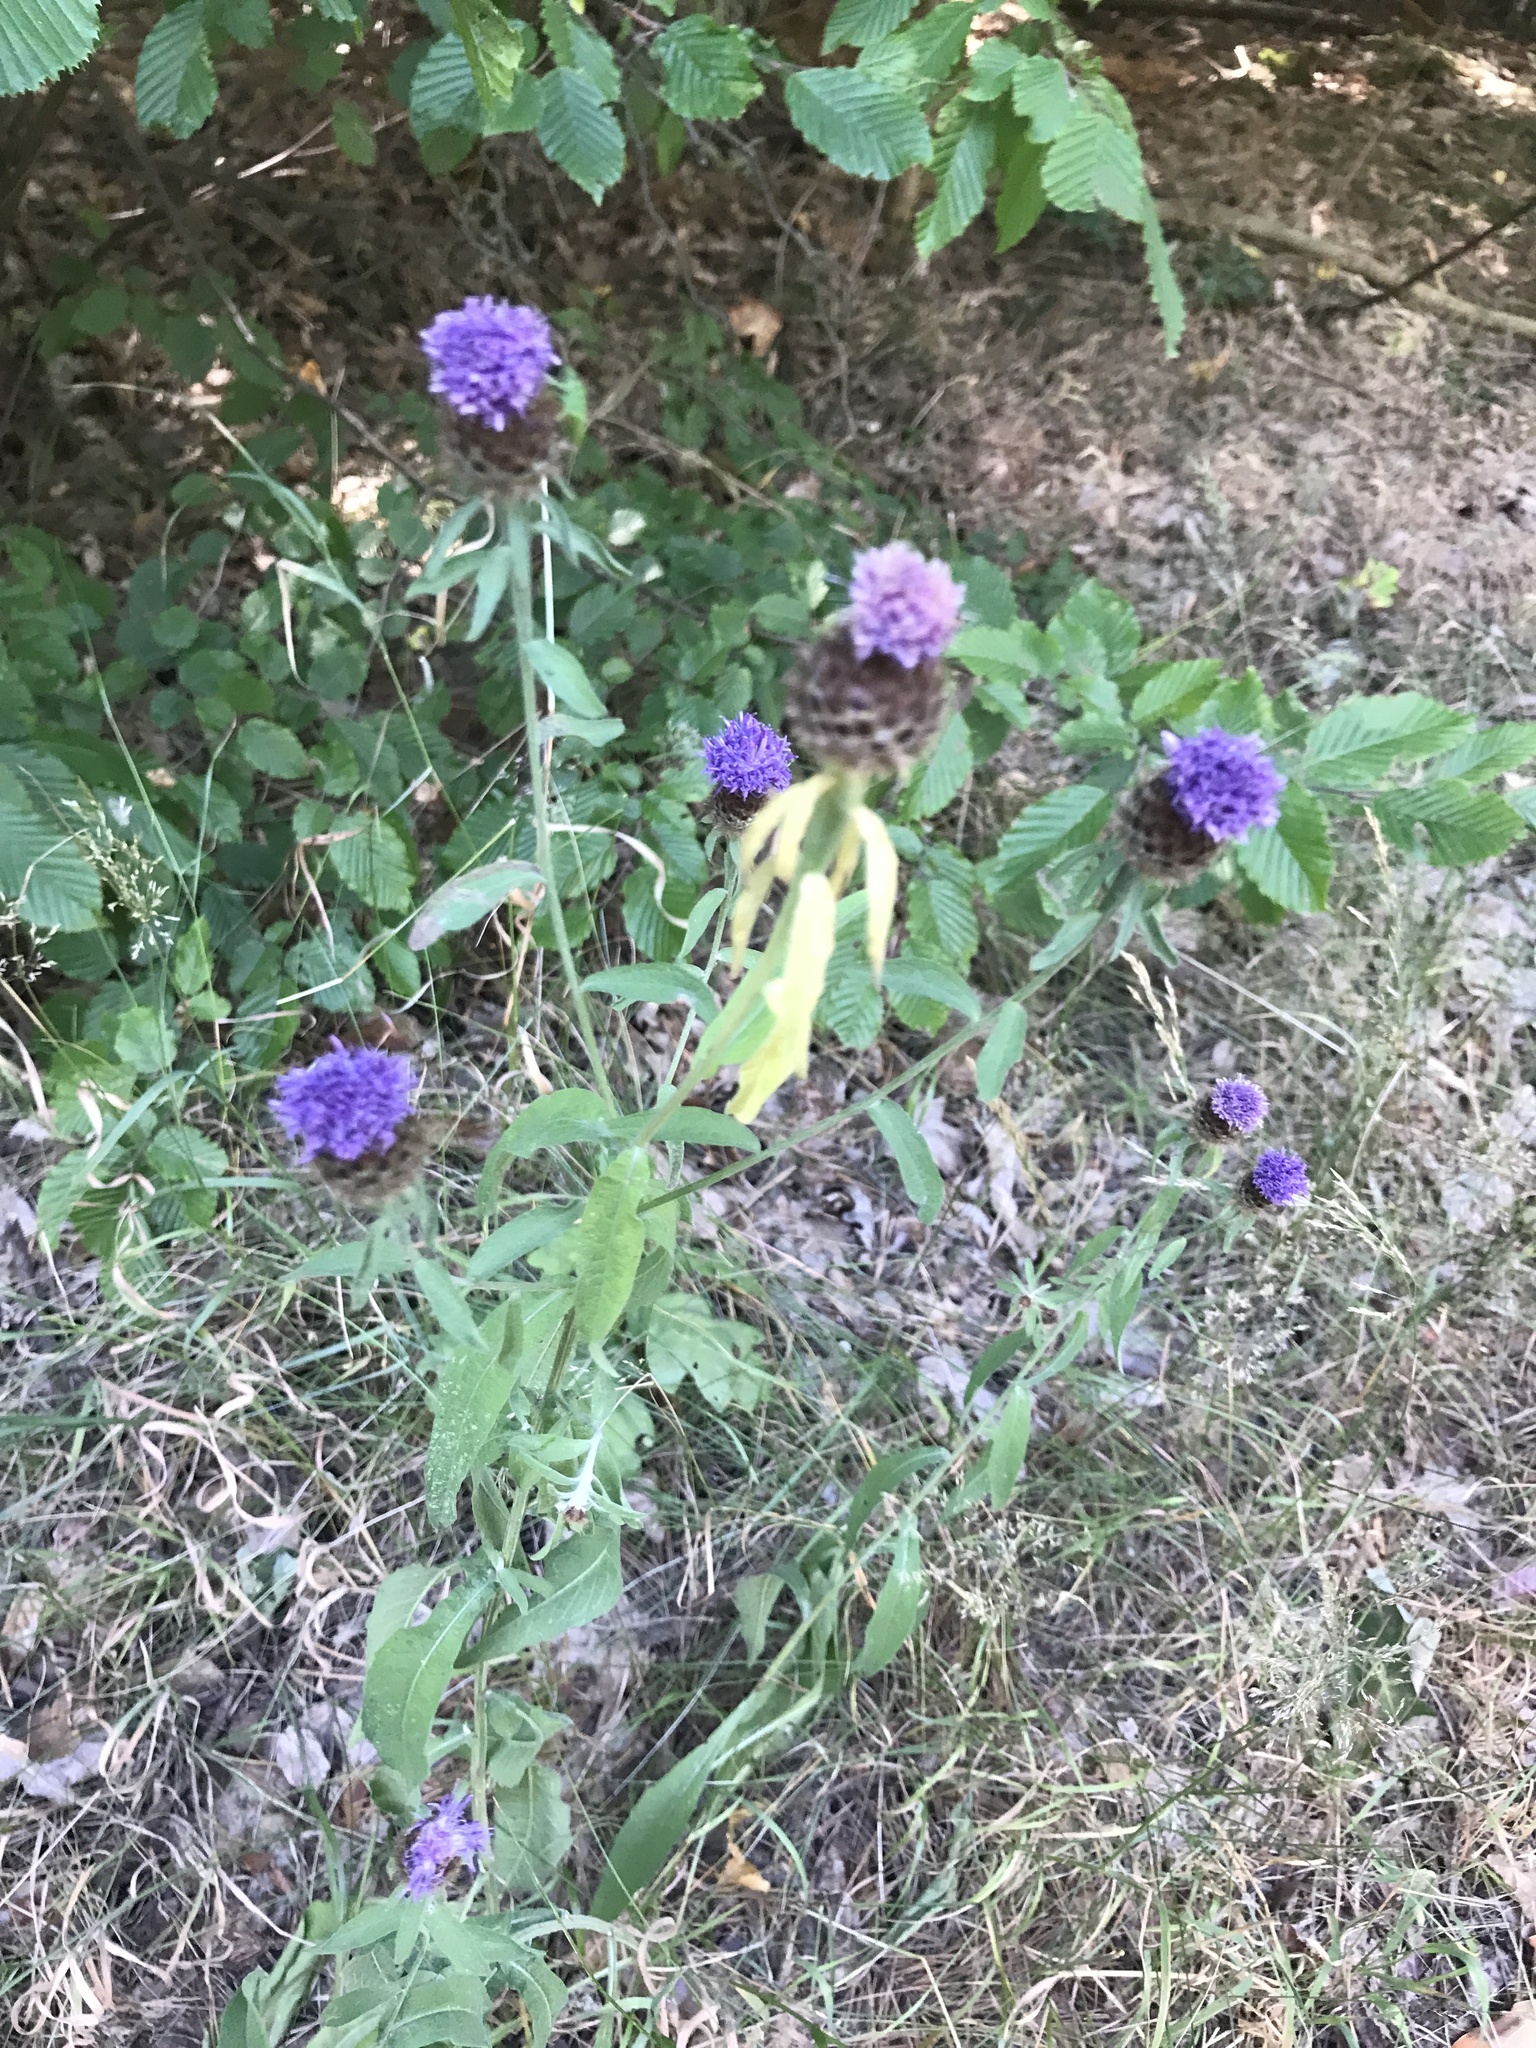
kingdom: Plantae
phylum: Tracheophyta
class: Magnoliopsida
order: Asterales
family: Asteraceae
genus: Centaurea
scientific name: Centaurea nigra
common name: Lesser knapweed
